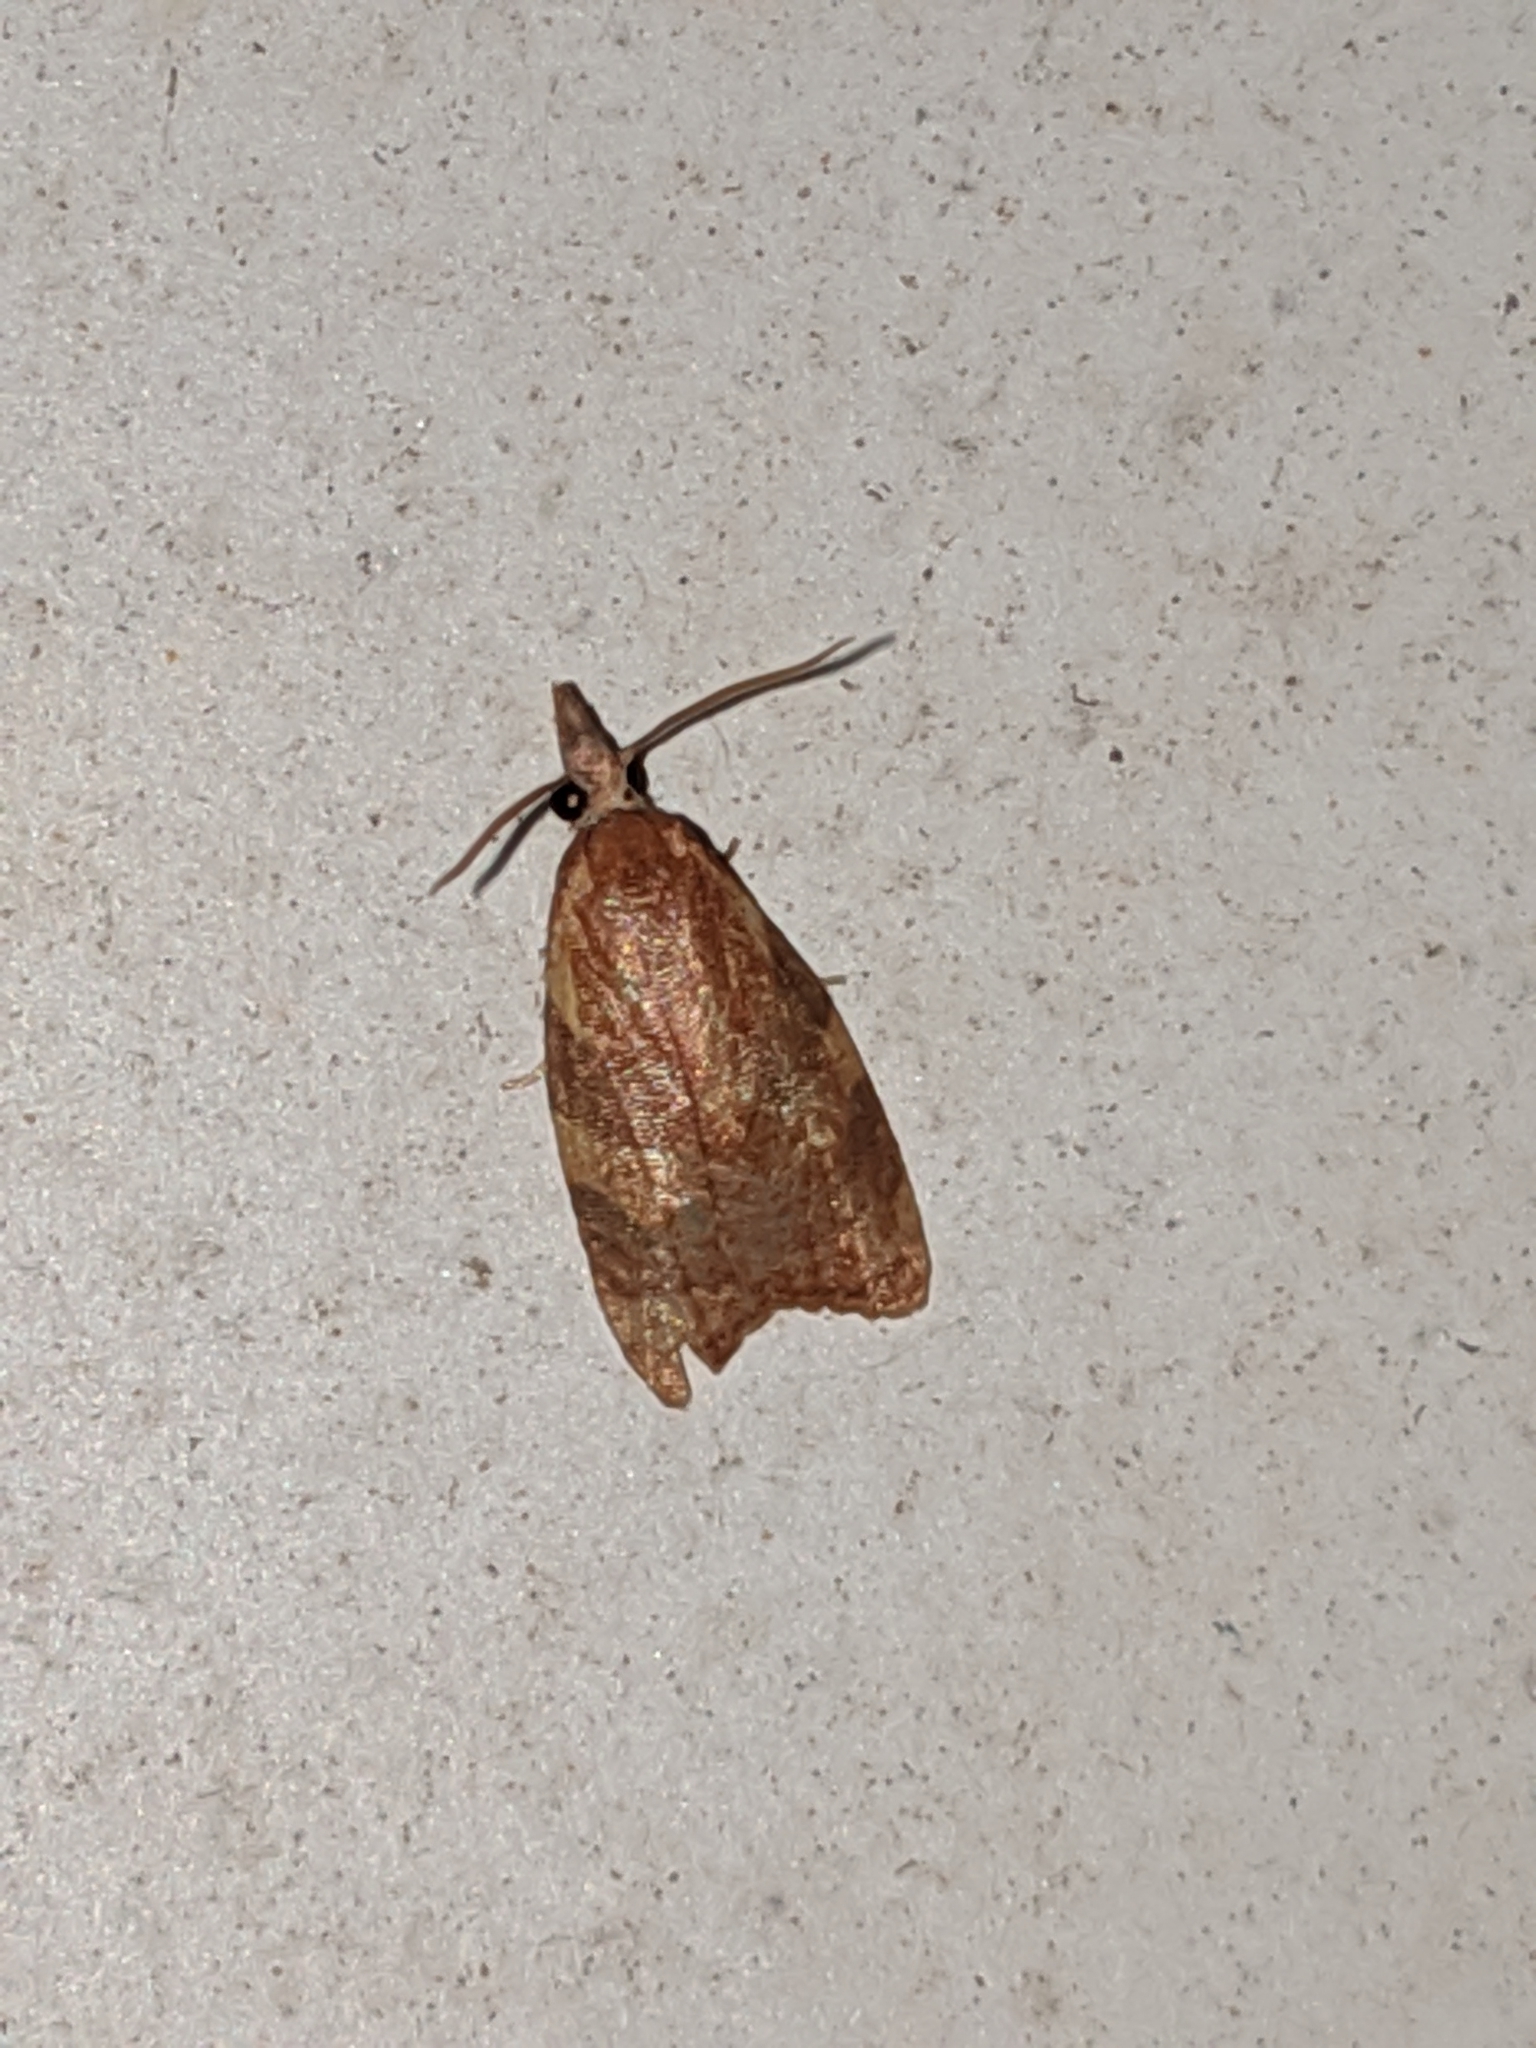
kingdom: Animalia
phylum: Arthropoda
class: Insecta
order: Lepidoptera
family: Tortricidae
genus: Cenopis
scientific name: Cenopis diluticostana
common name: Spring dead-leaf roller moth
